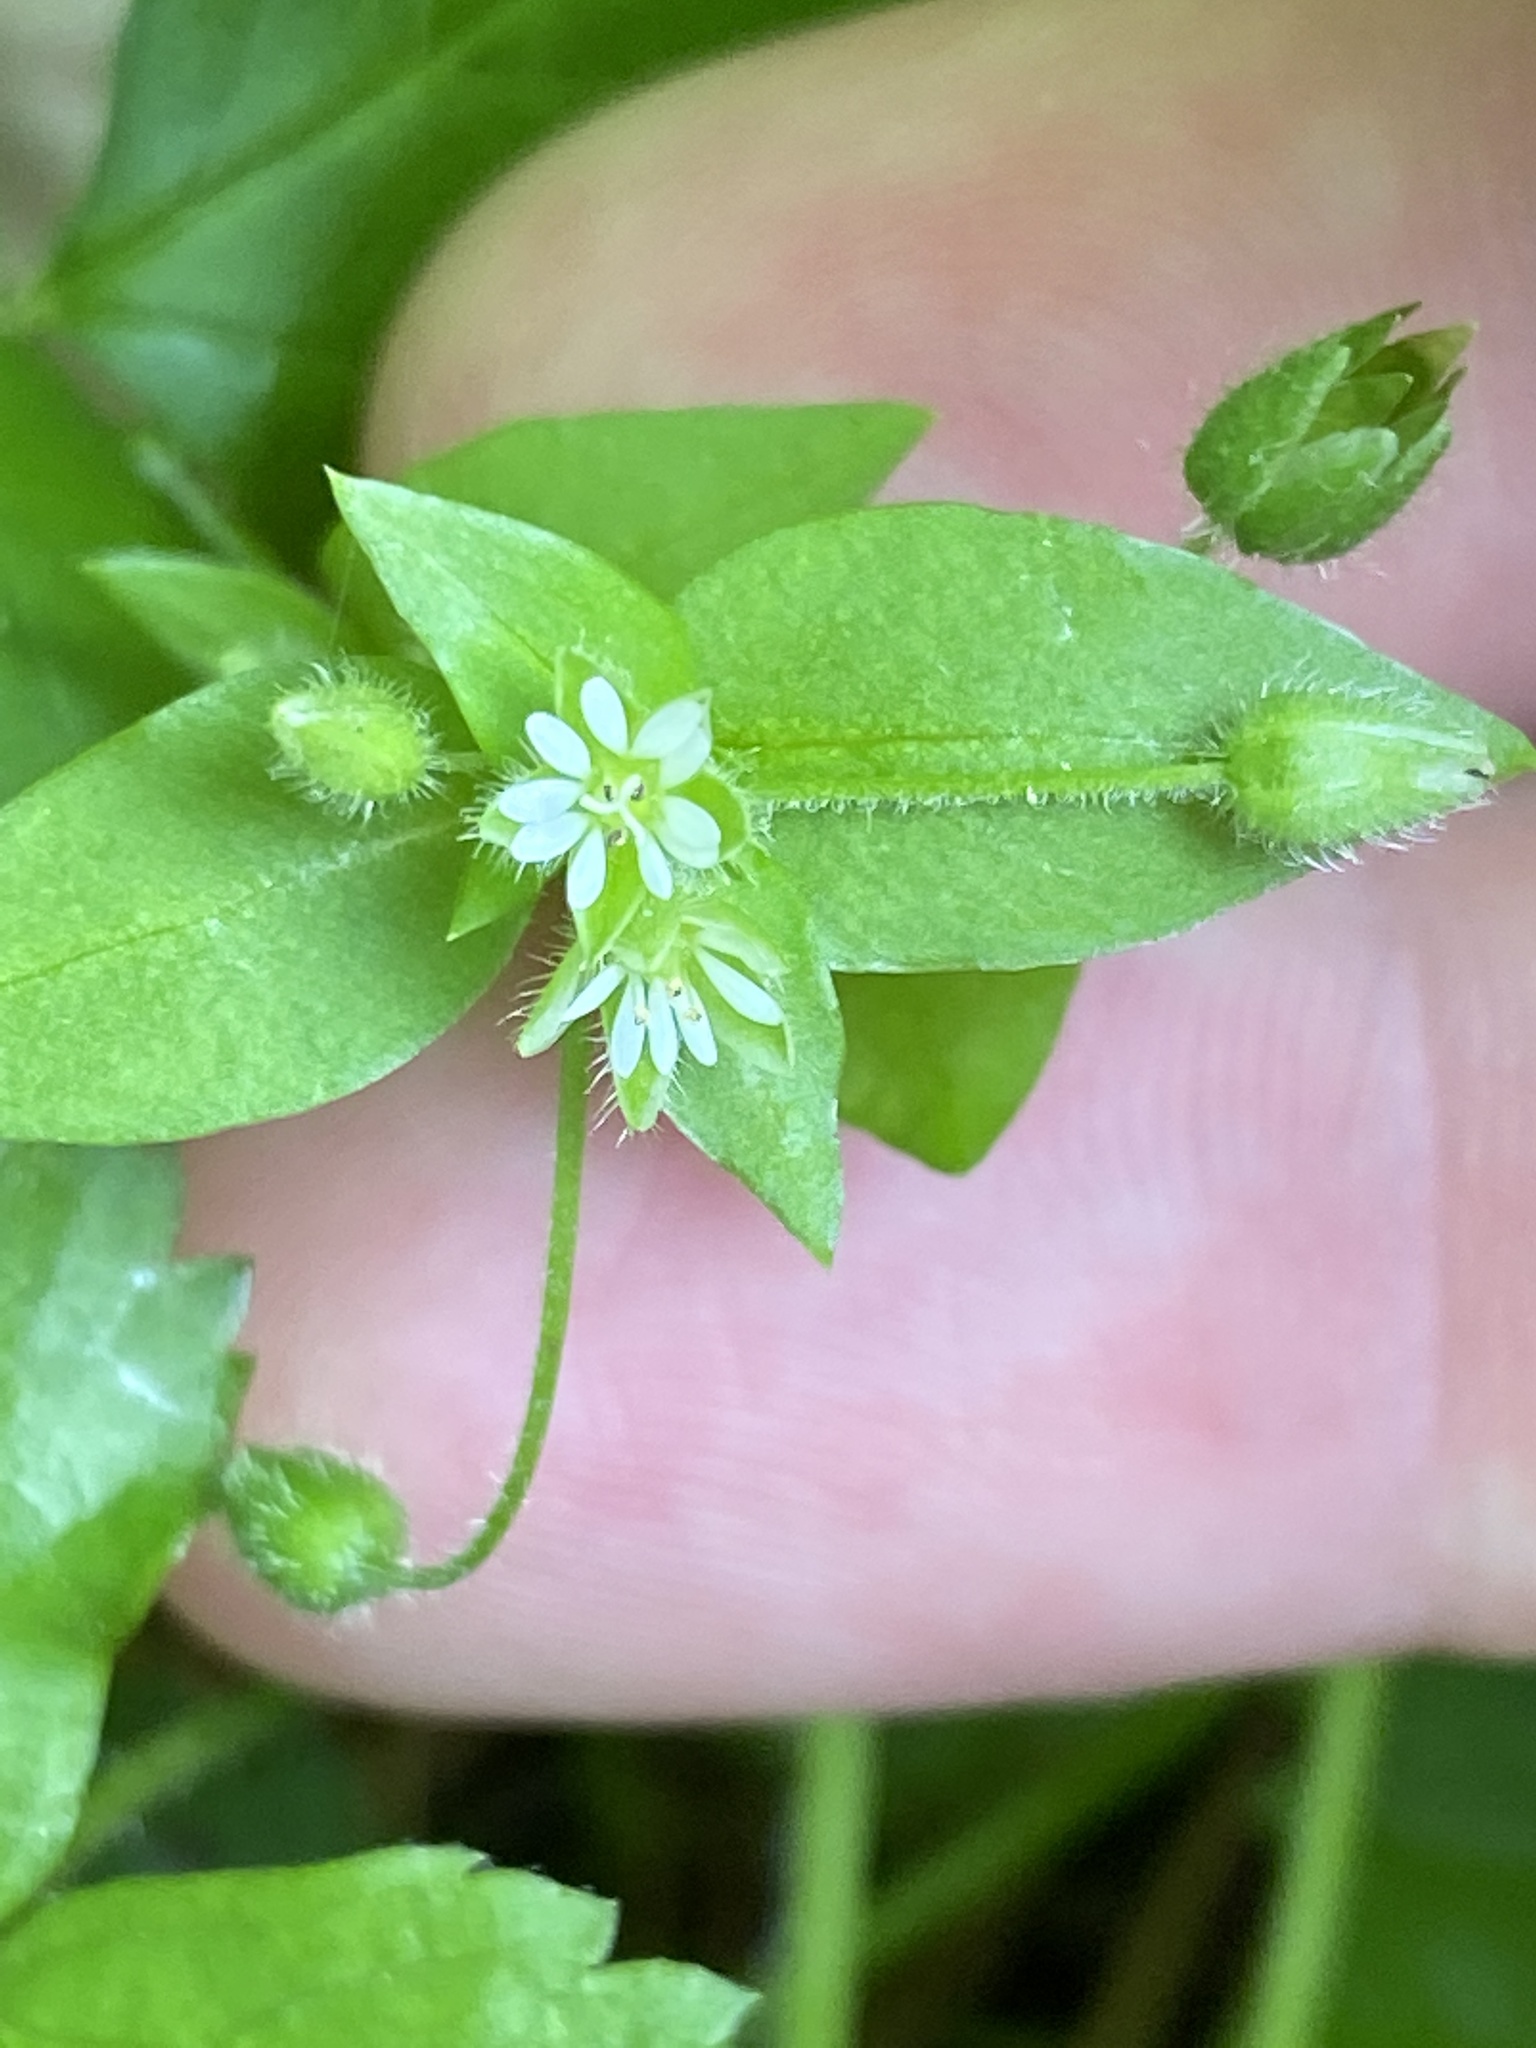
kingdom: Plantae
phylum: Tracheophyta
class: Magnoliopsida
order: Caryophyllales
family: Caryophyllaceae
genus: Stellaria
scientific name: Stellaria media
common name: Common chickweed
